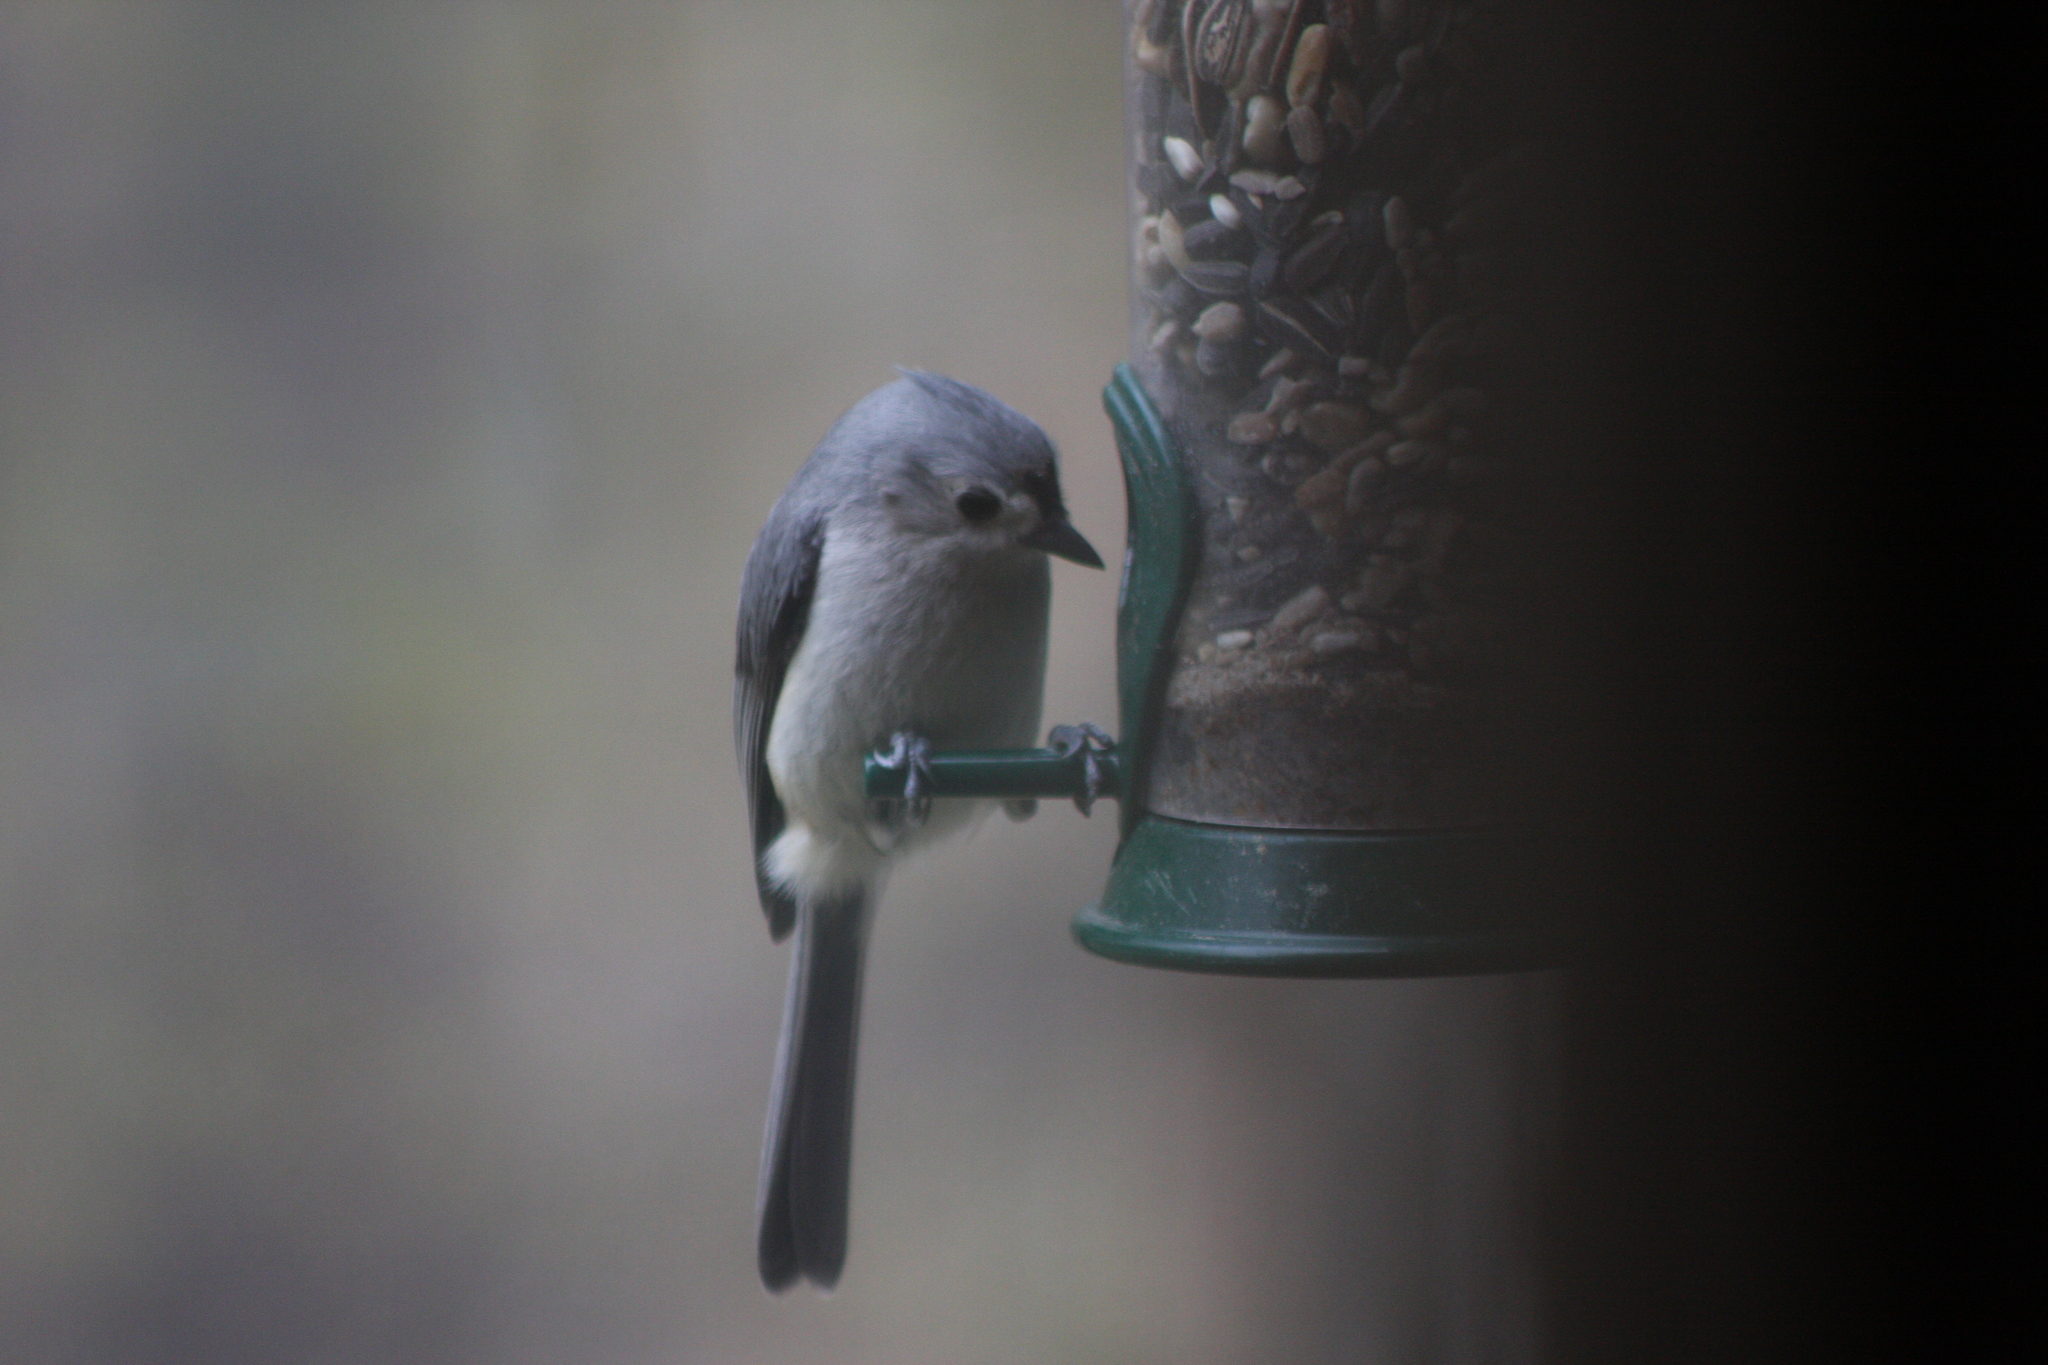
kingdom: Animalia
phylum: Chordata
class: Aves
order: Passeriformes
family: Paridae
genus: Baeolophus
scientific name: Baeolophus bicolor
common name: Tufted titmouse
